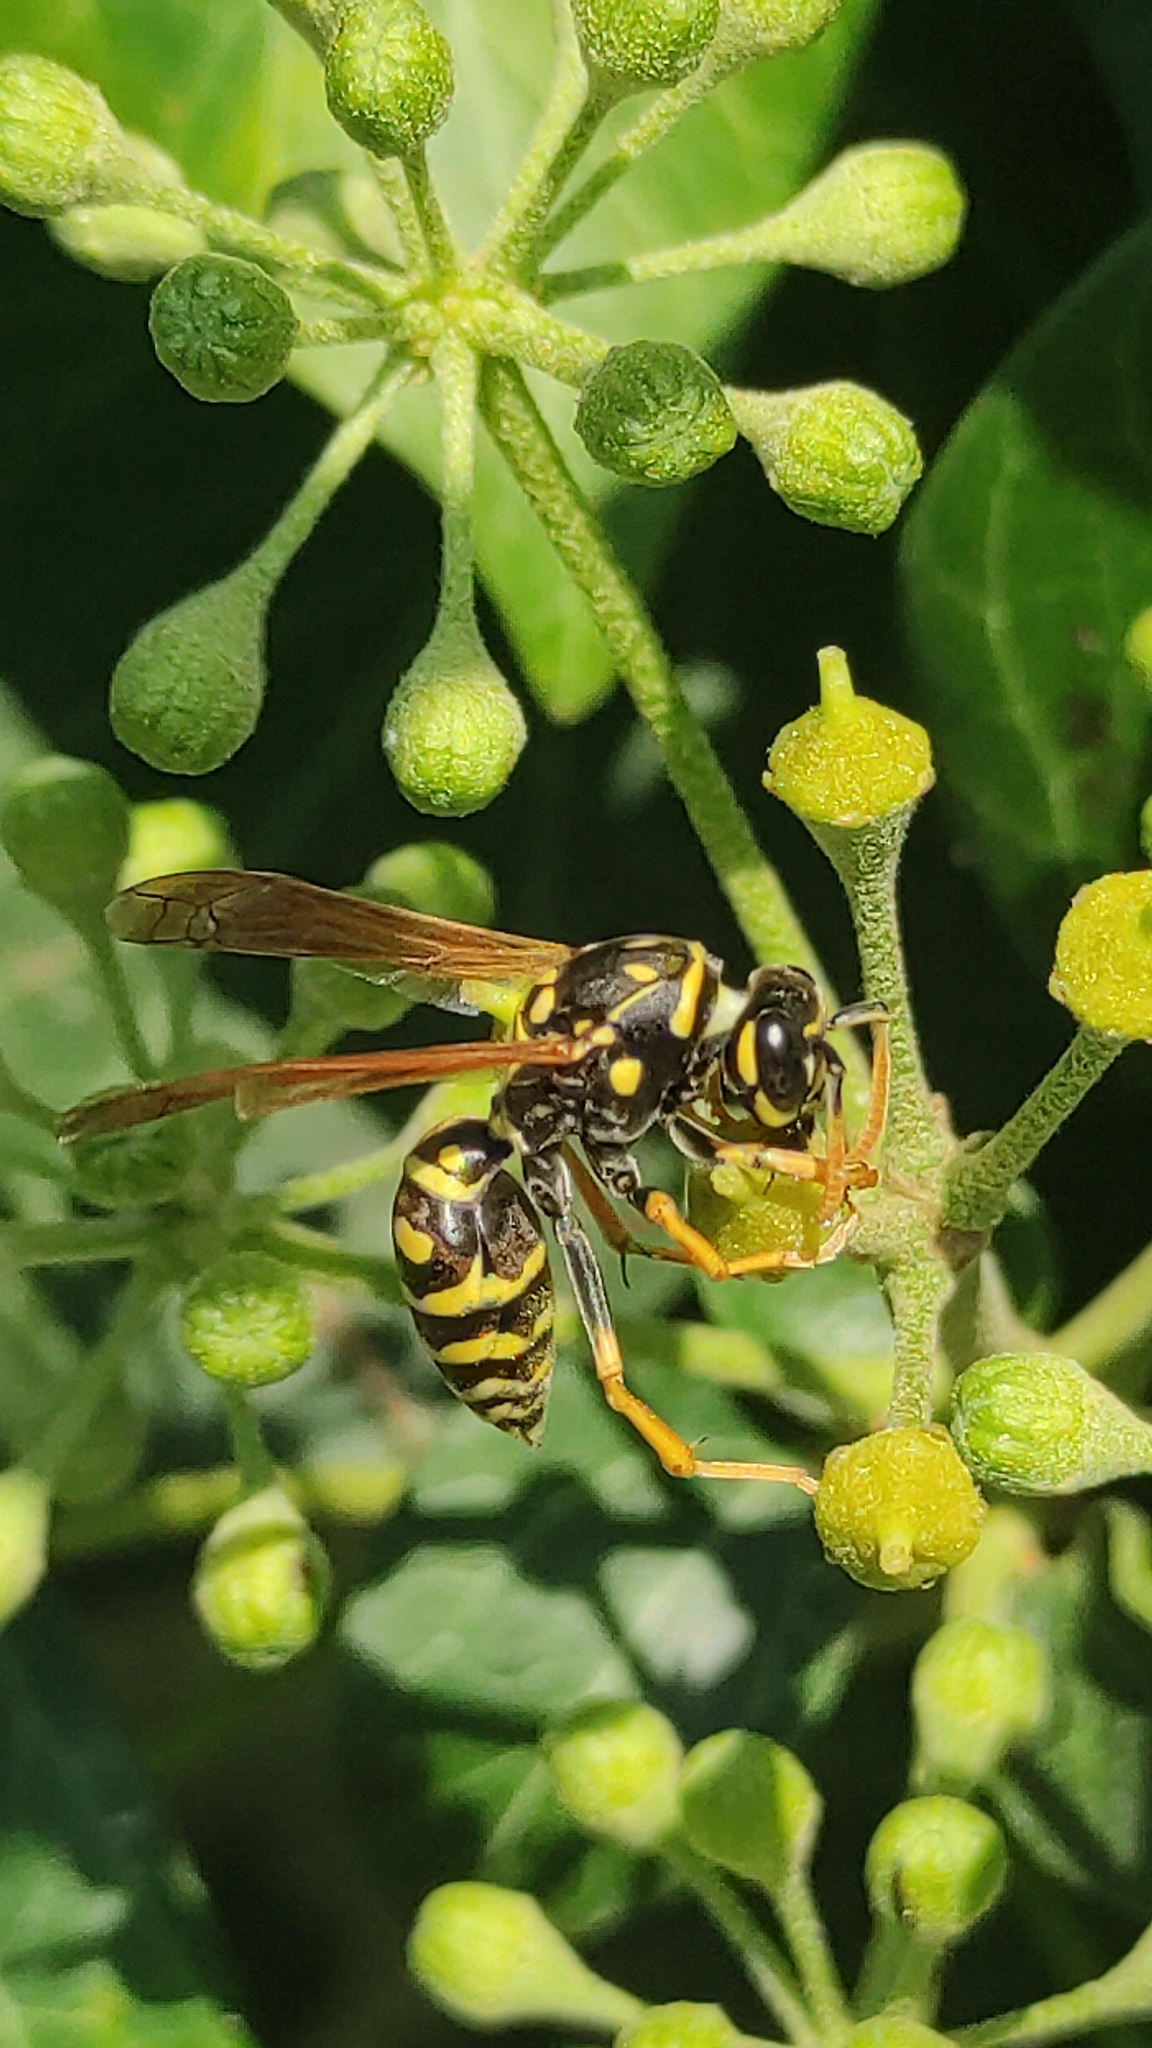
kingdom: Animalia
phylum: Arthropoda
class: Insecta
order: Hymenoptera
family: Eumenidae
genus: Polistes
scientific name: Polistes dominula
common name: Paper wasp
